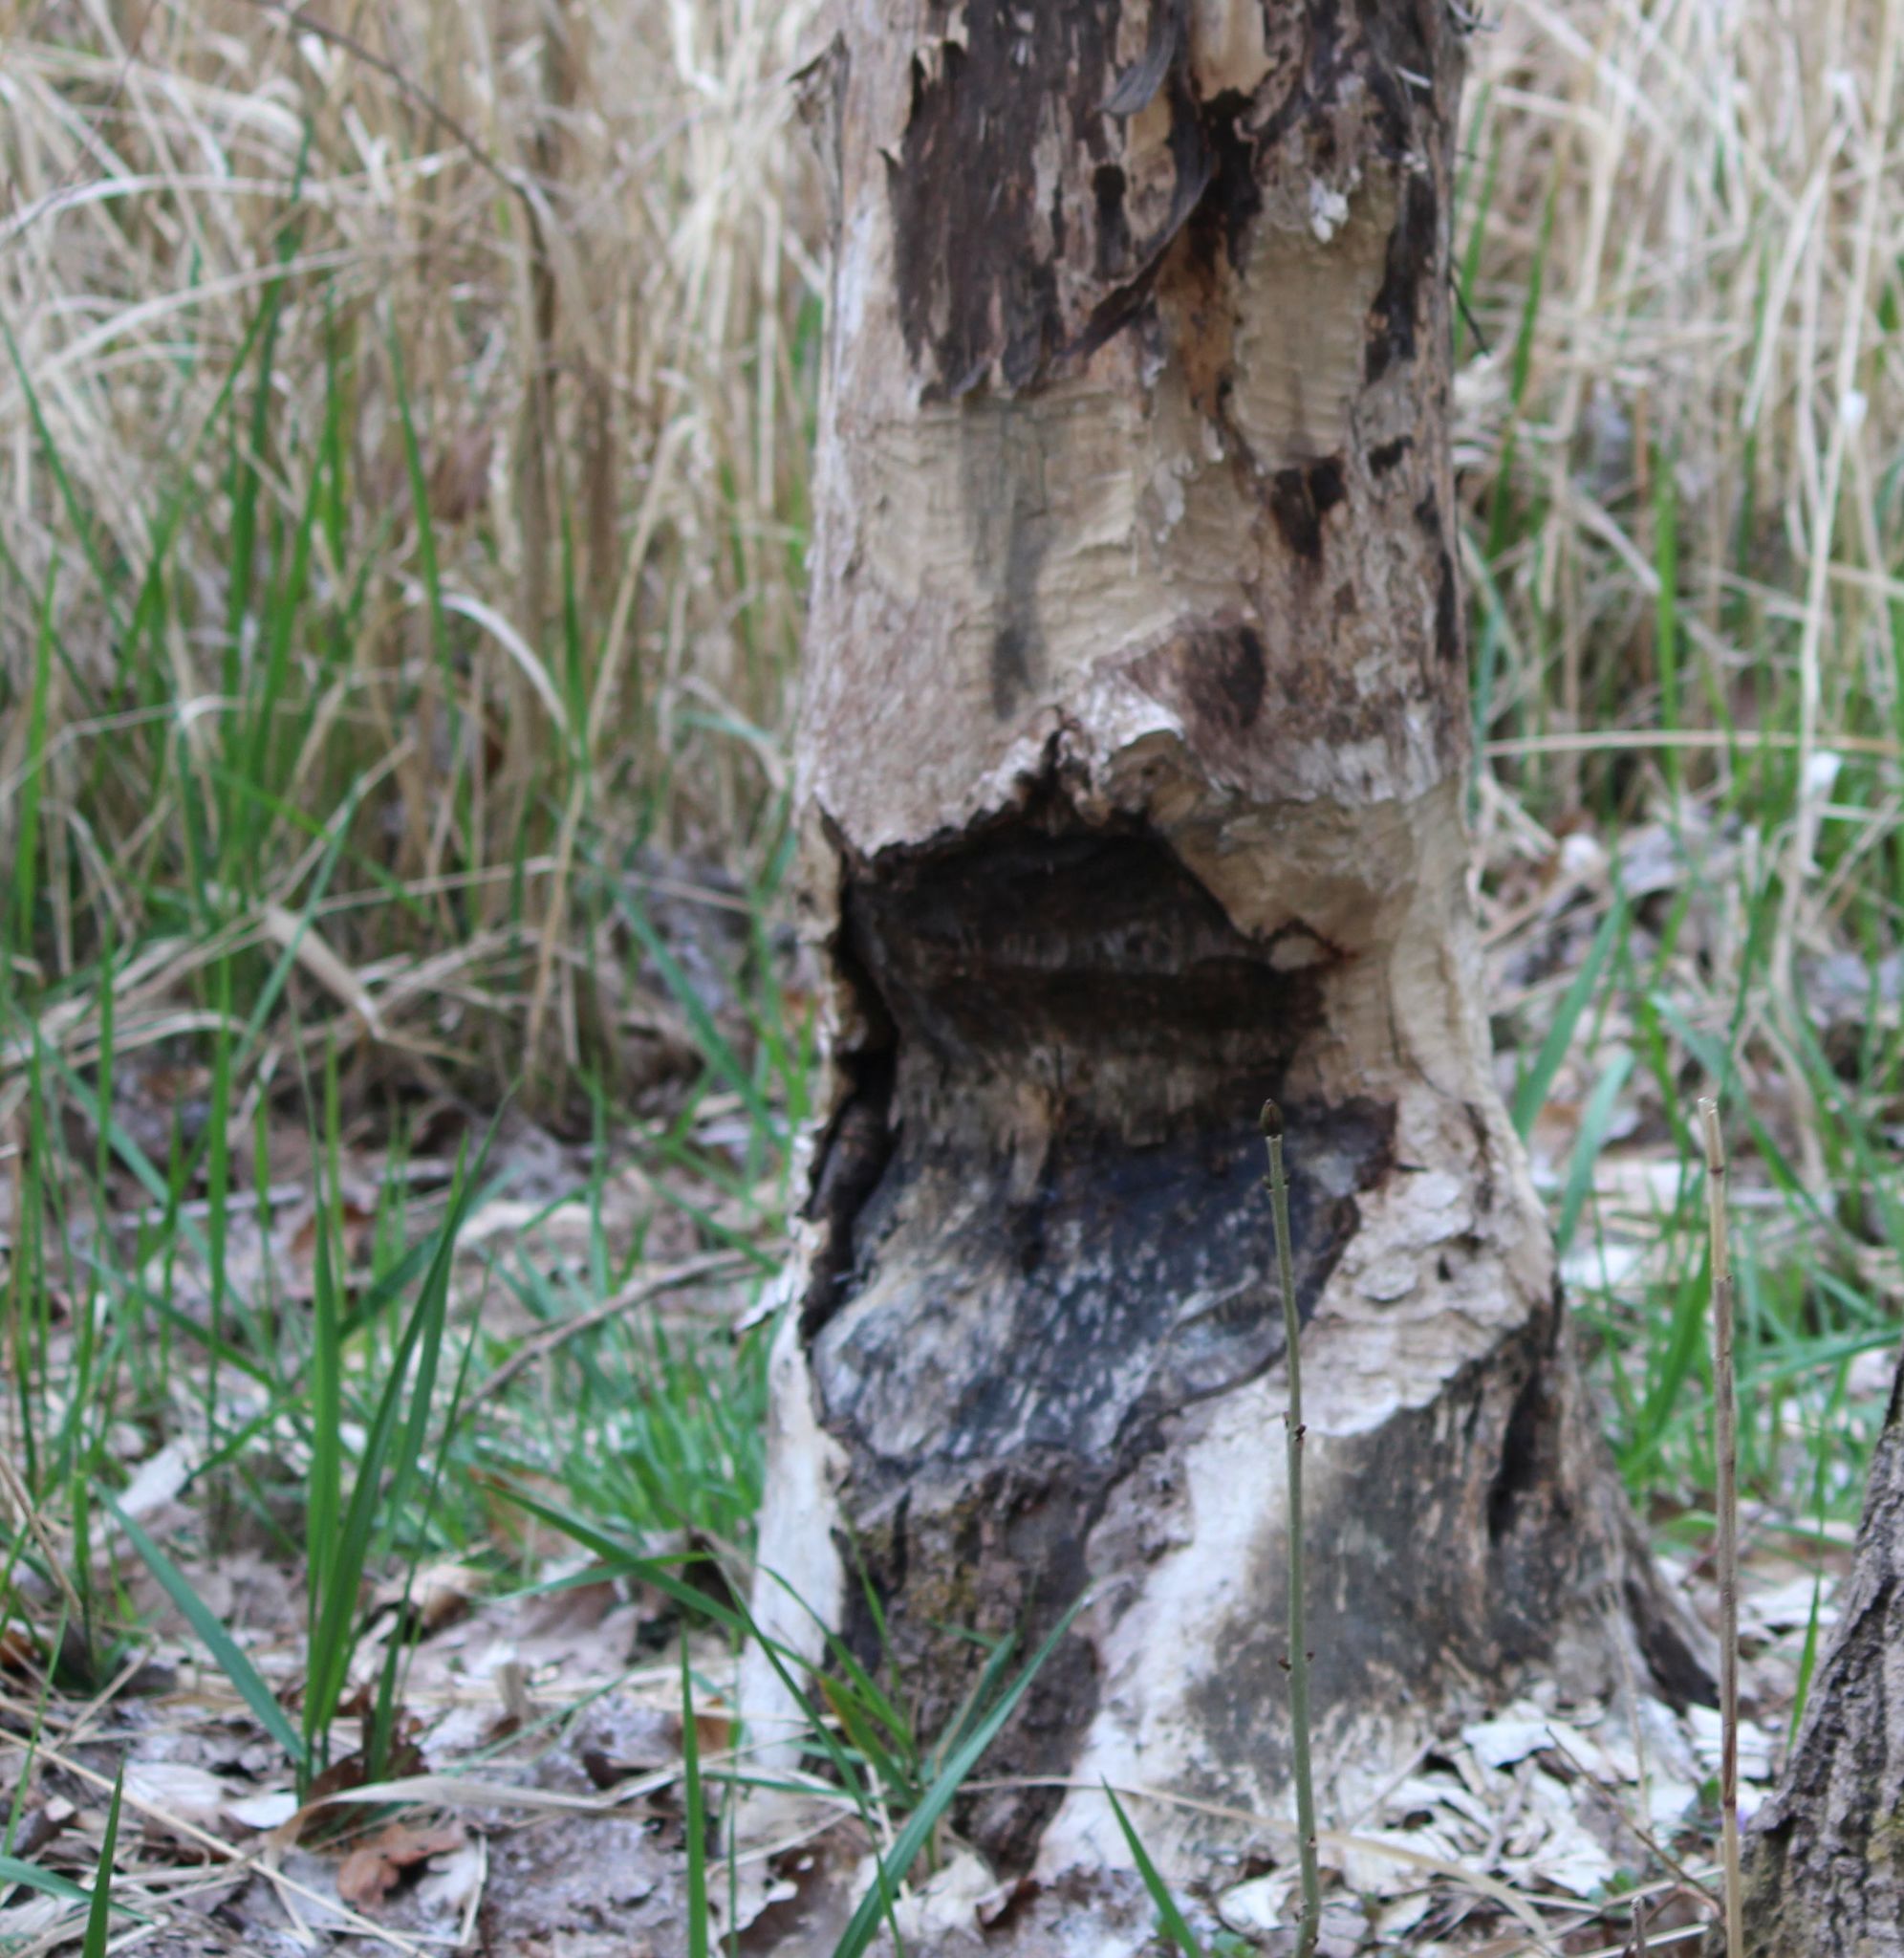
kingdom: Animalia
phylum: Chordata
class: Mammalia
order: Rodentia
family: Castoridae
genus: Castor
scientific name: Castor fiber
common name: Eurasian beaver
